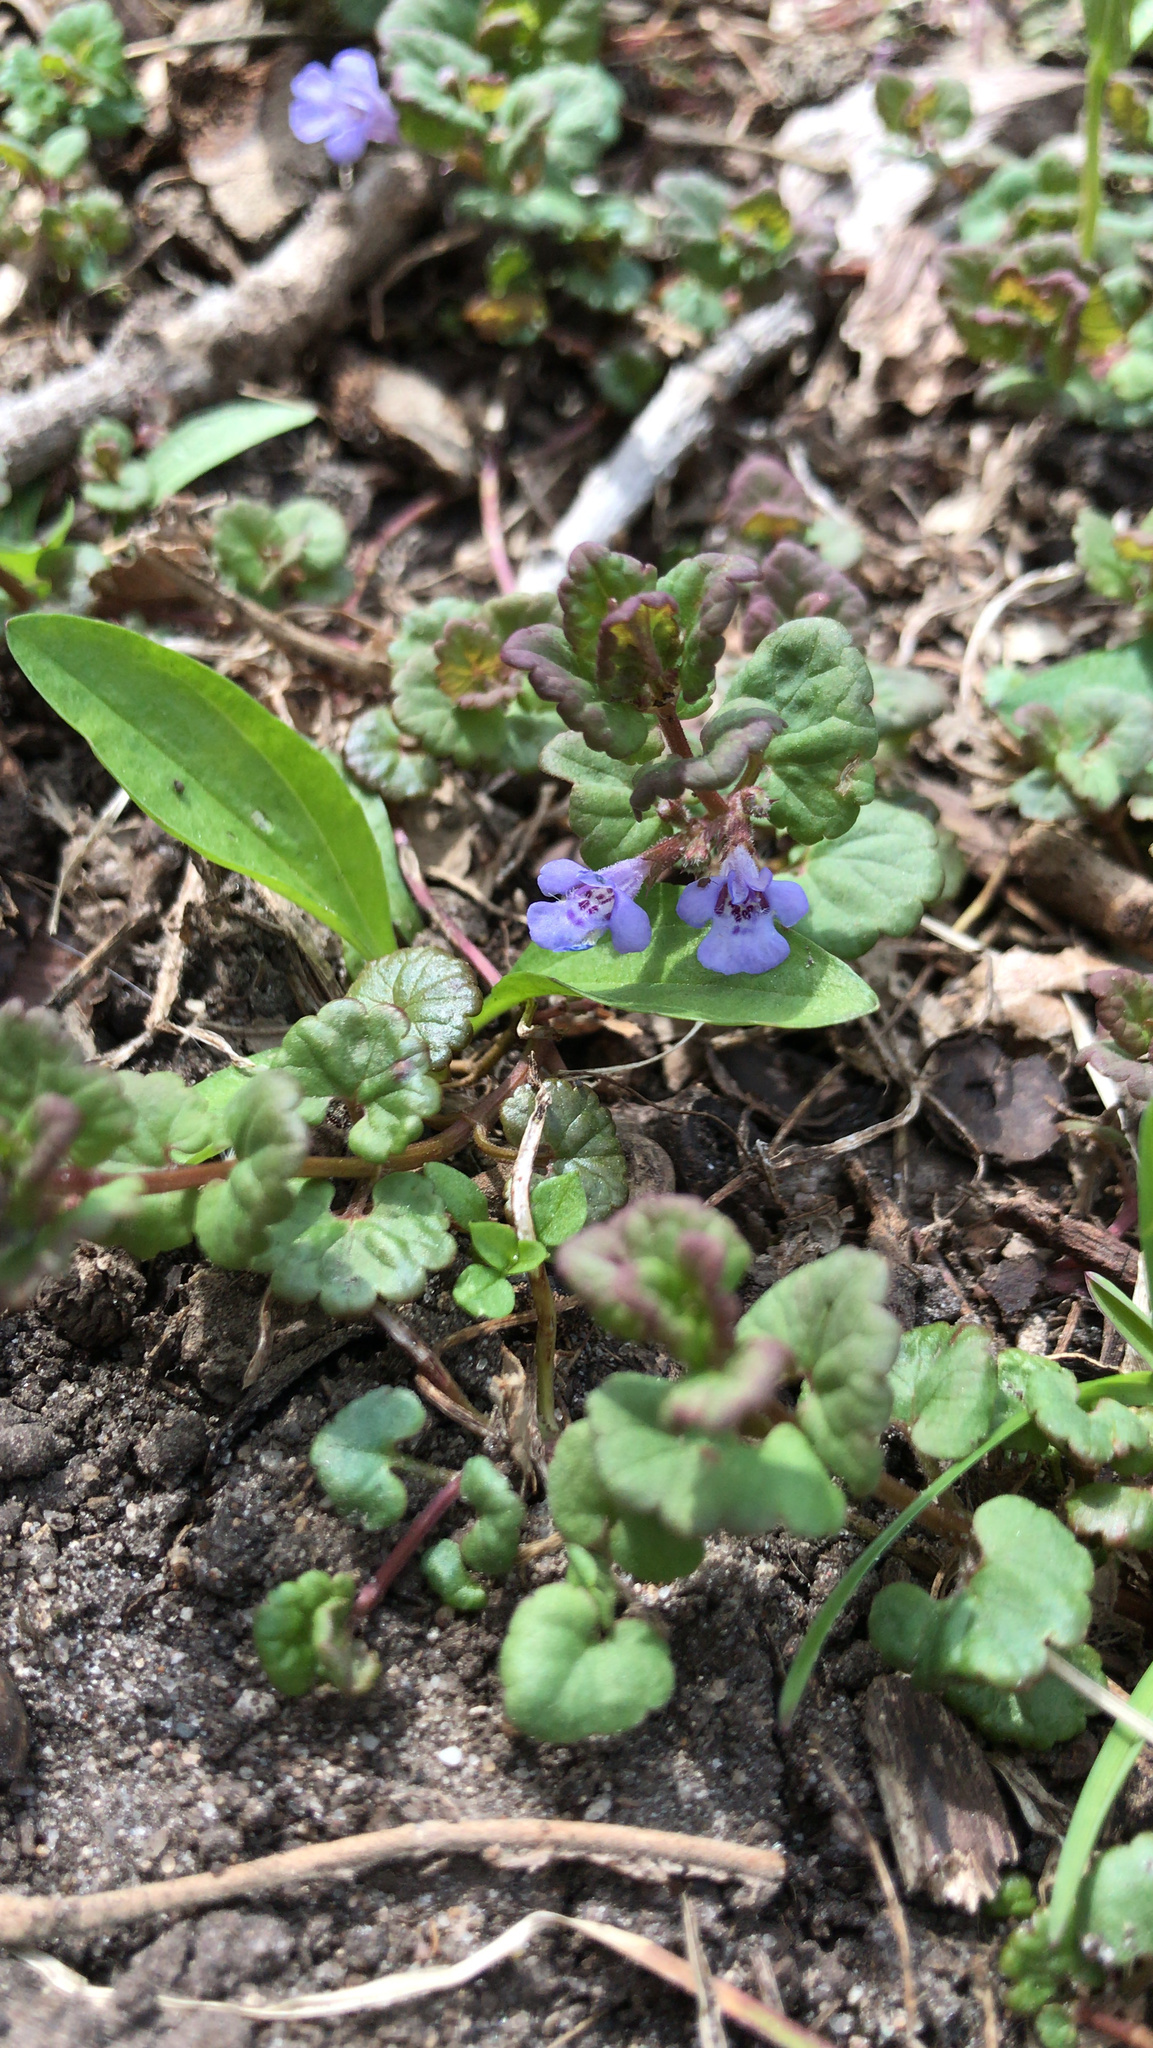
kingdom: Plantae
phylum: Tracheophyta
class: Magnoliopsida
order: Lamiales
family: Lamiaceae
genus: Glechoma
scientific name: Glechoma hederacea
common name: Ground ivy
